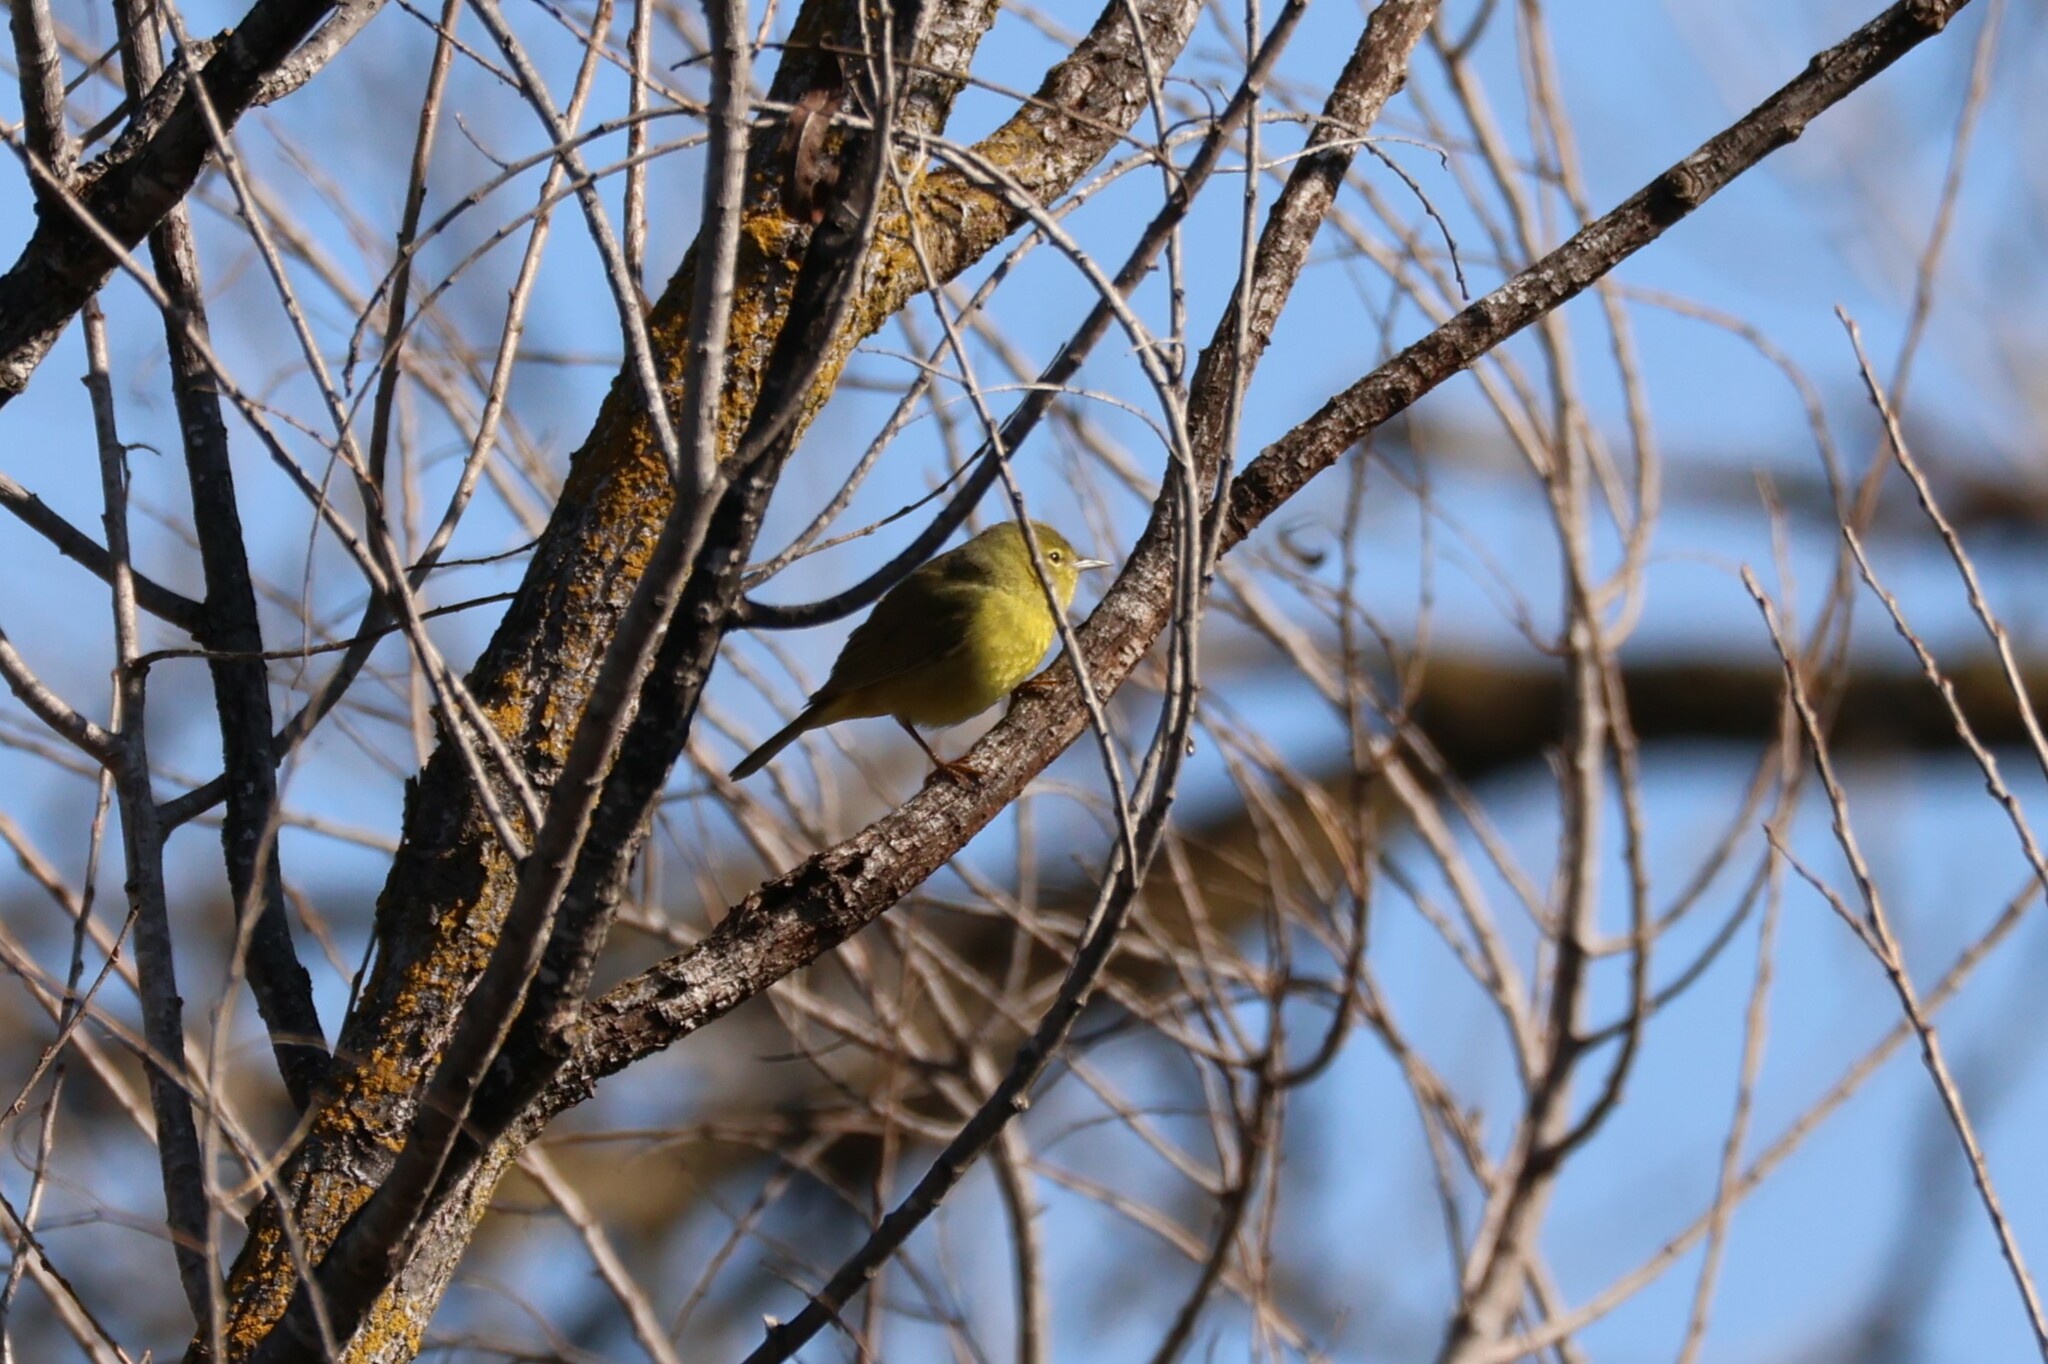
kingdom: Animalia
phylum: Chordata
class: Aves
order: Passeriformes
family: Parulidae
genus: Leiothlypis
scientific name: Leiothlypis celata
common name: Orange-crowned warbler
